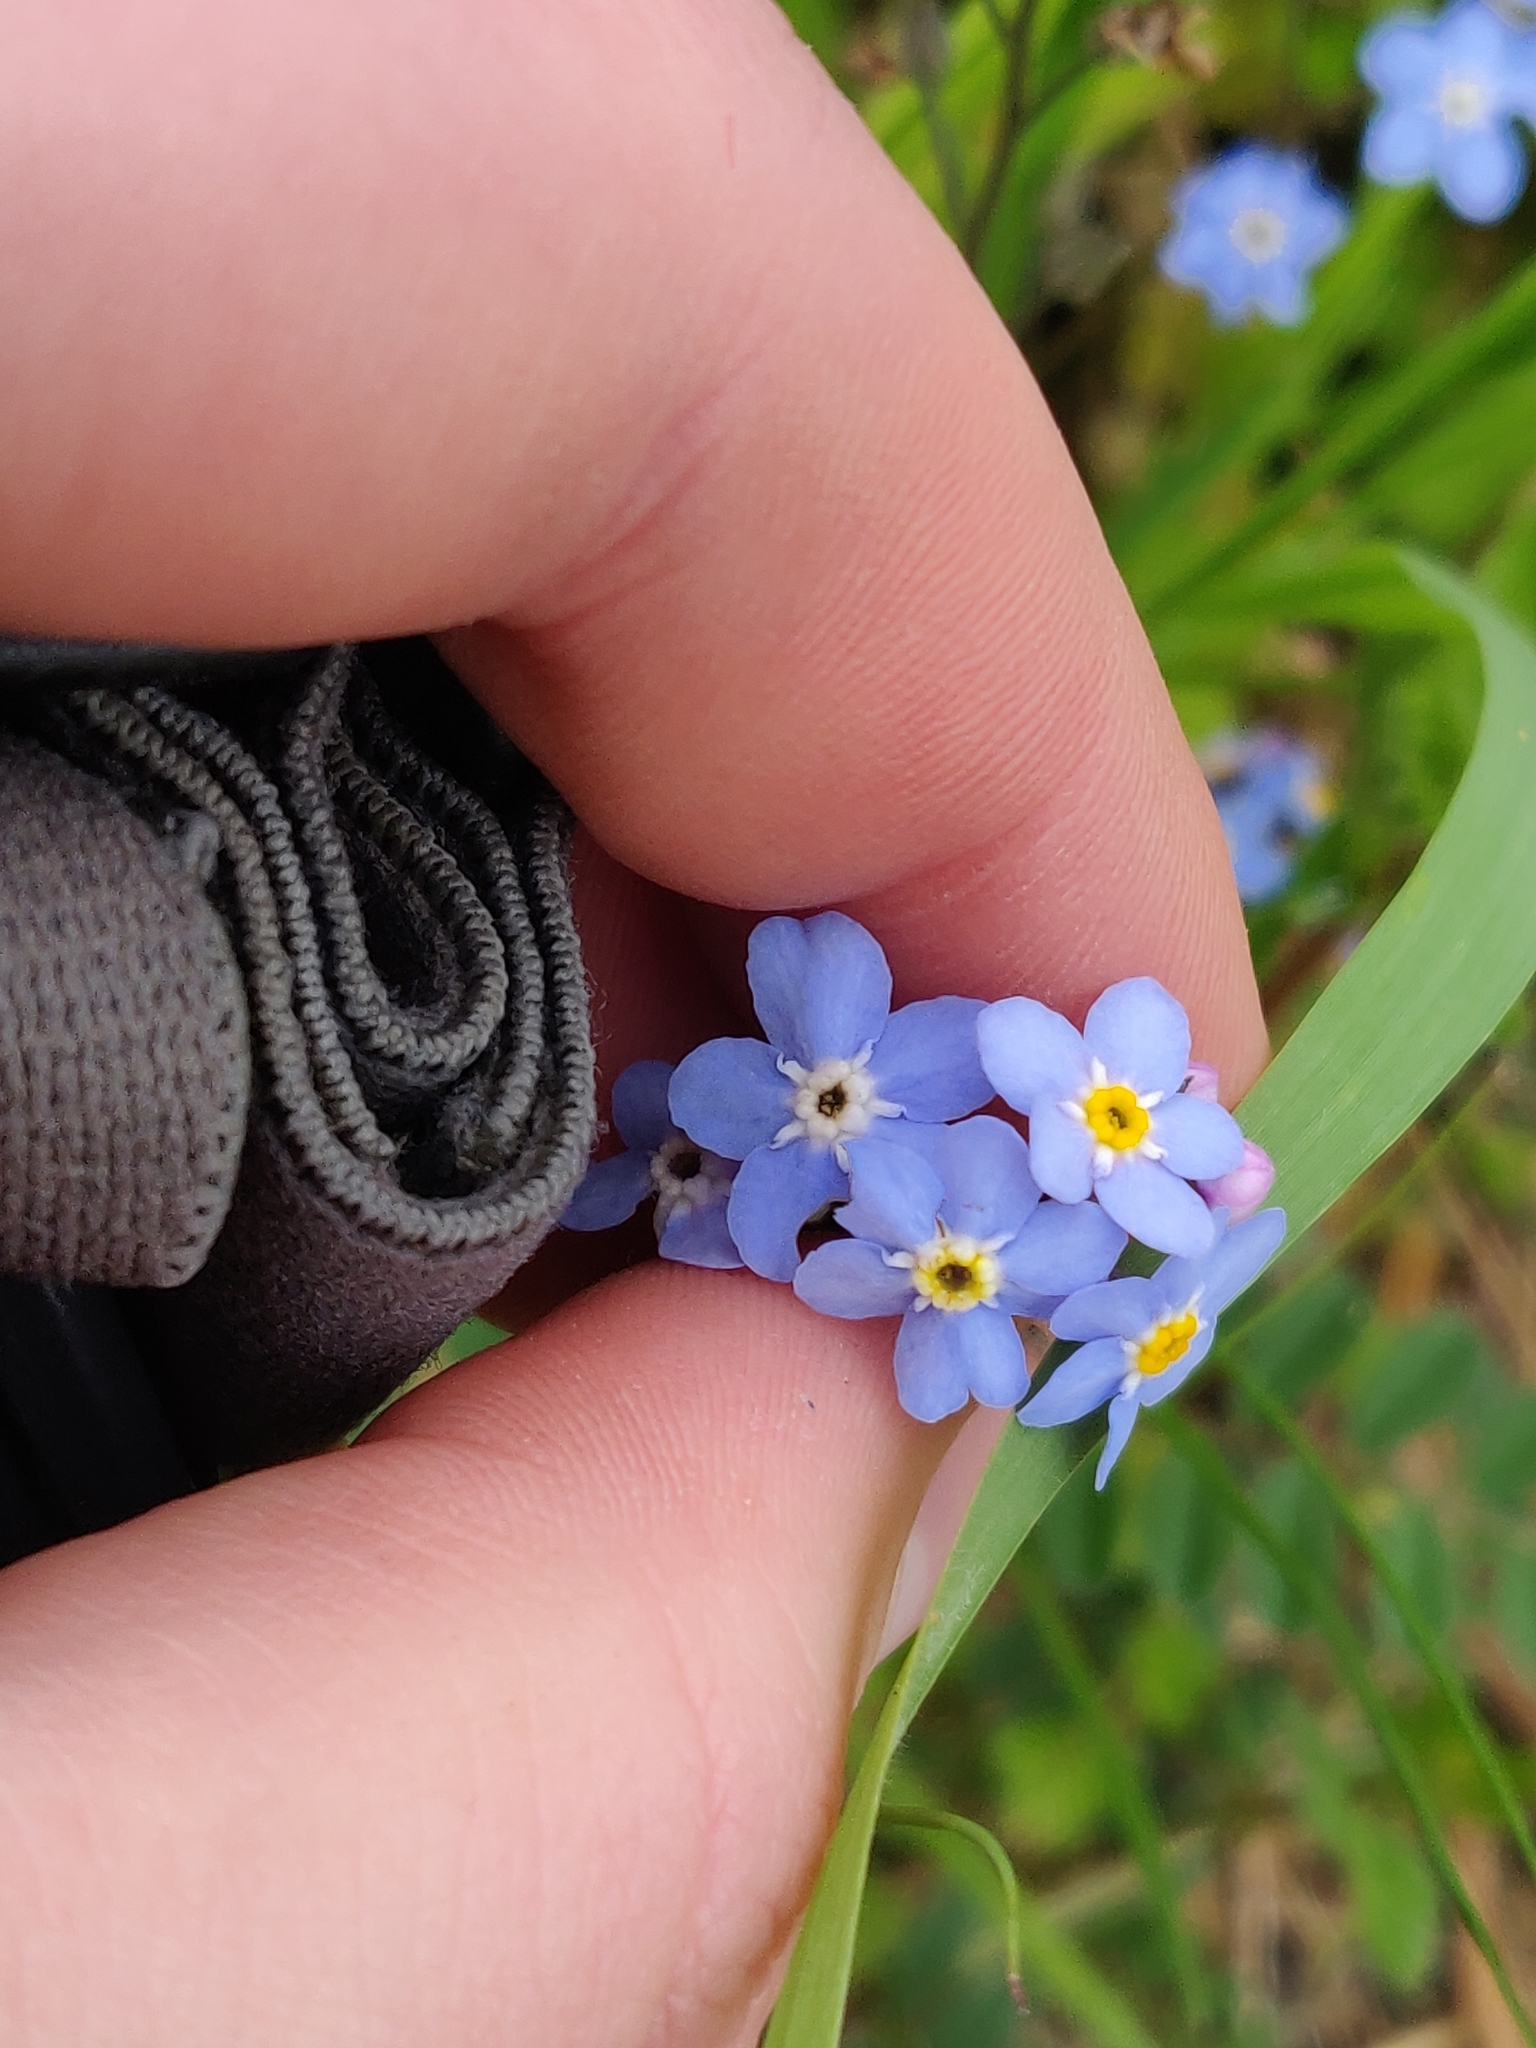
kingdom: Plantae
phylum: Tracheophyta
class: Magnoliopsida
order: Boraginales
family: Boraginaceae
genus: Myosotis
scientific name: Myosotis sylvatica
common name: Wood forget-me-not
